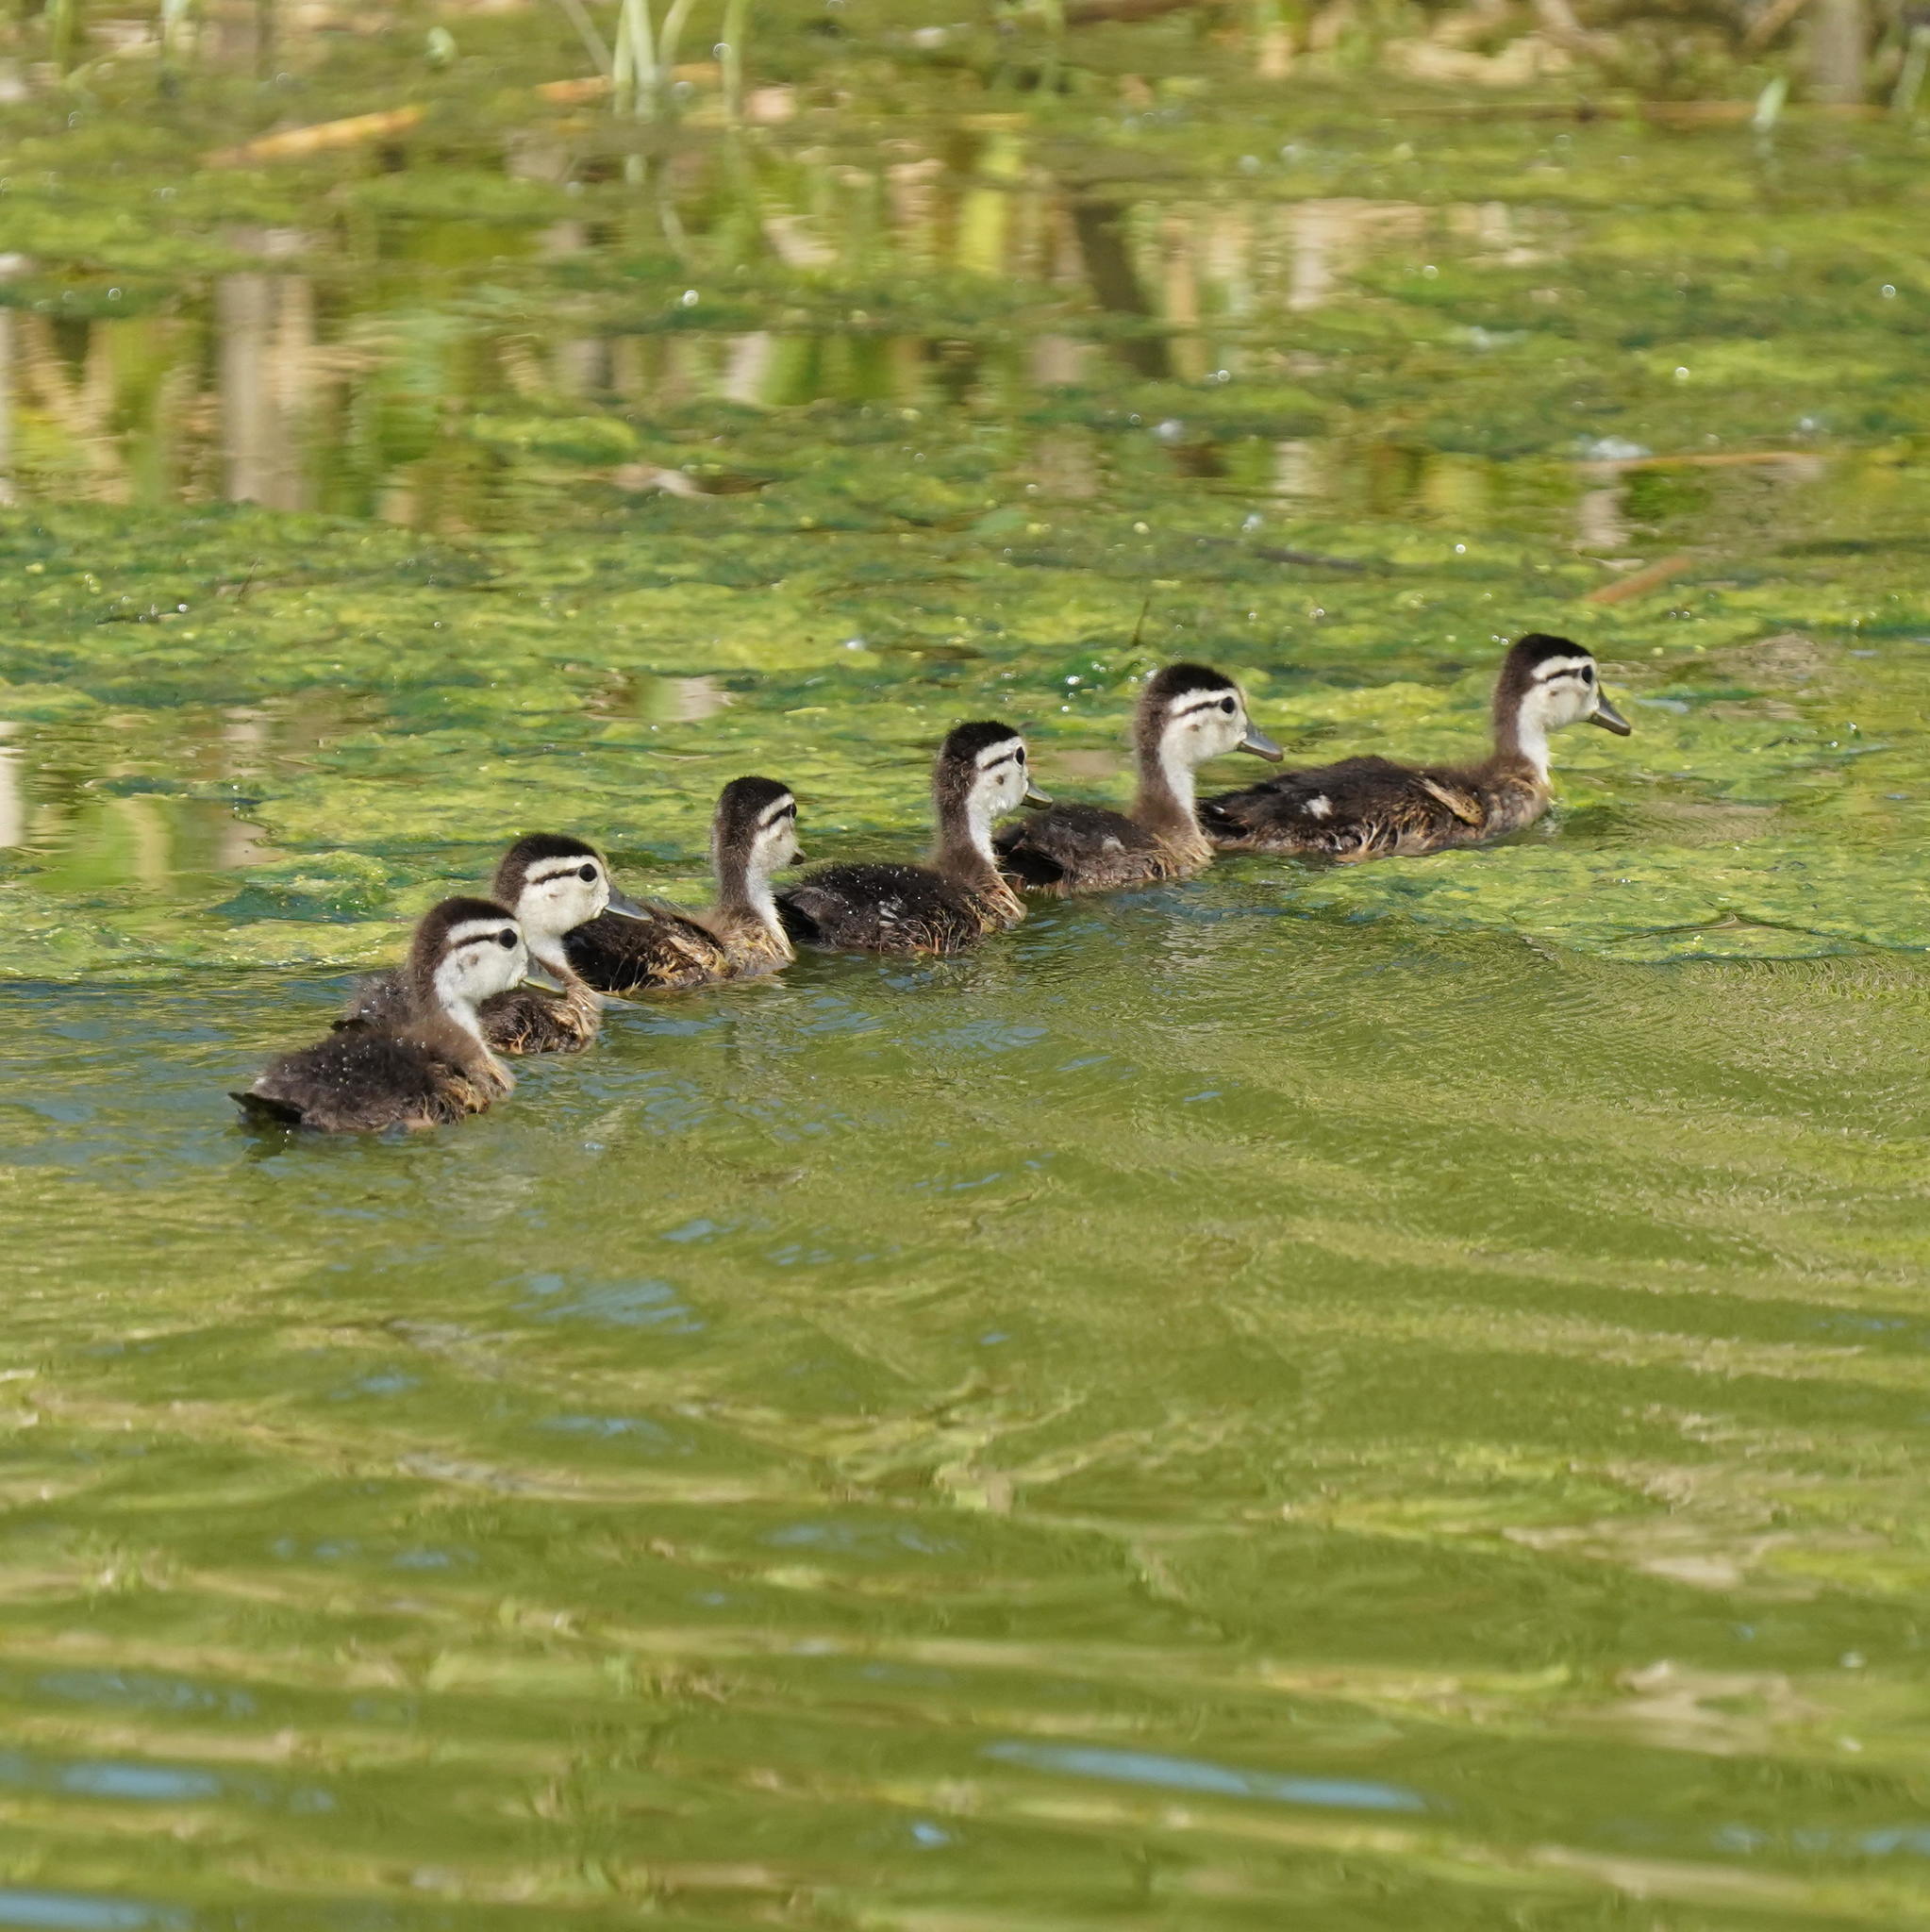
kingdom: Animalia
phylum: Chordata
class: Aves
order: Anseriformes
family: Anatidae
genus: Aix
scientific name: Aix sponsa
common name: Wood duck
